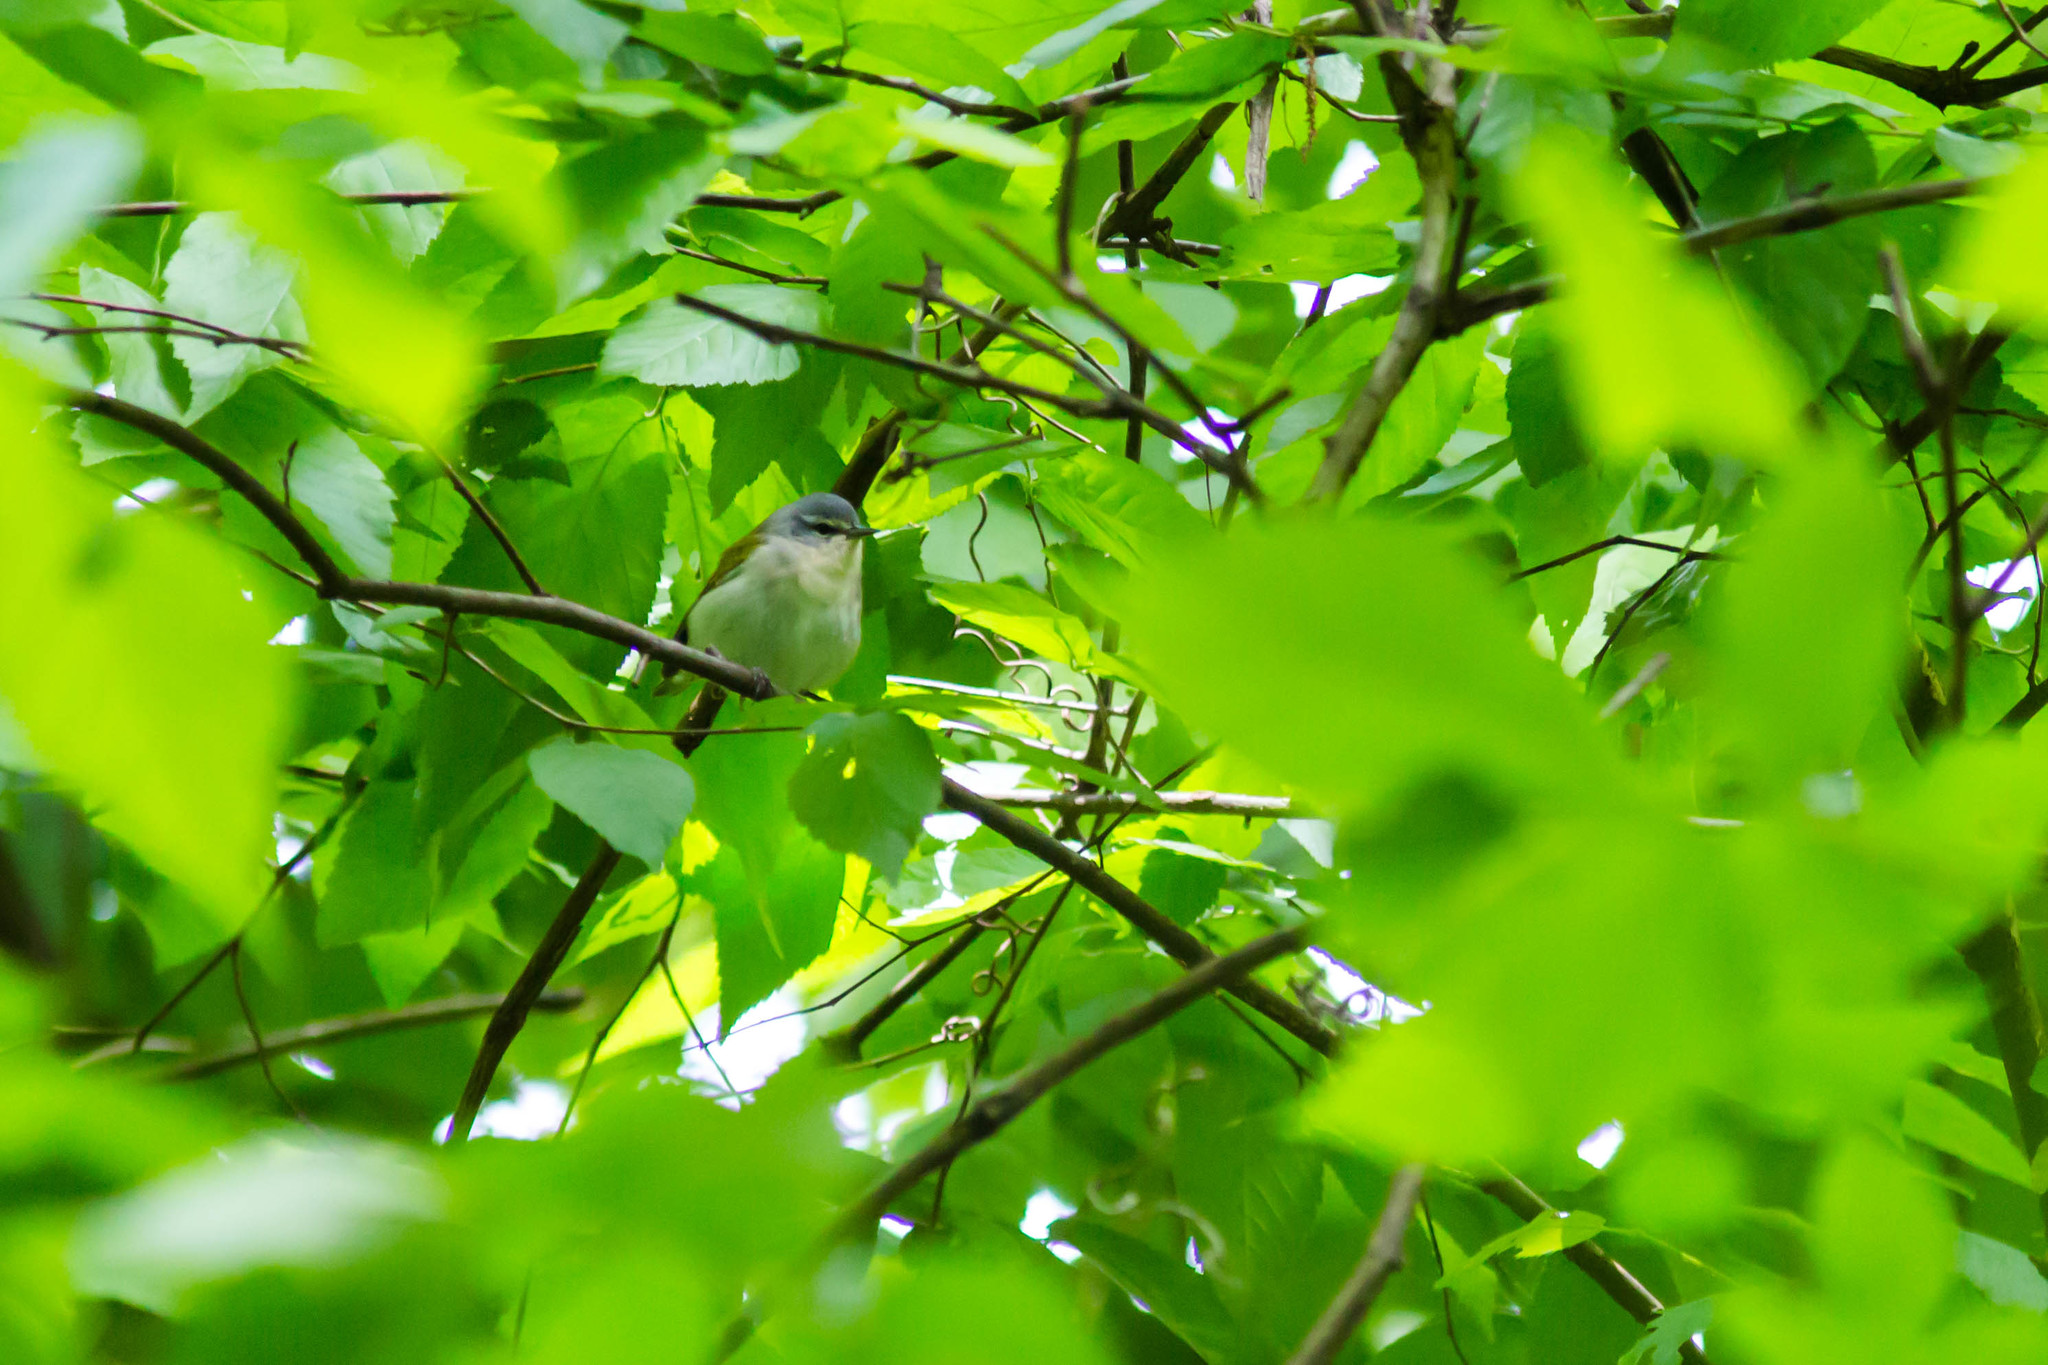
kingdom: Animalia
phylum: Chordata
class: Aves
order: Passeriformes
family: Parulidae
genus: Leiothlypis
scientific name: Leiothlypis peregrina
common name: Tennessee warbler
